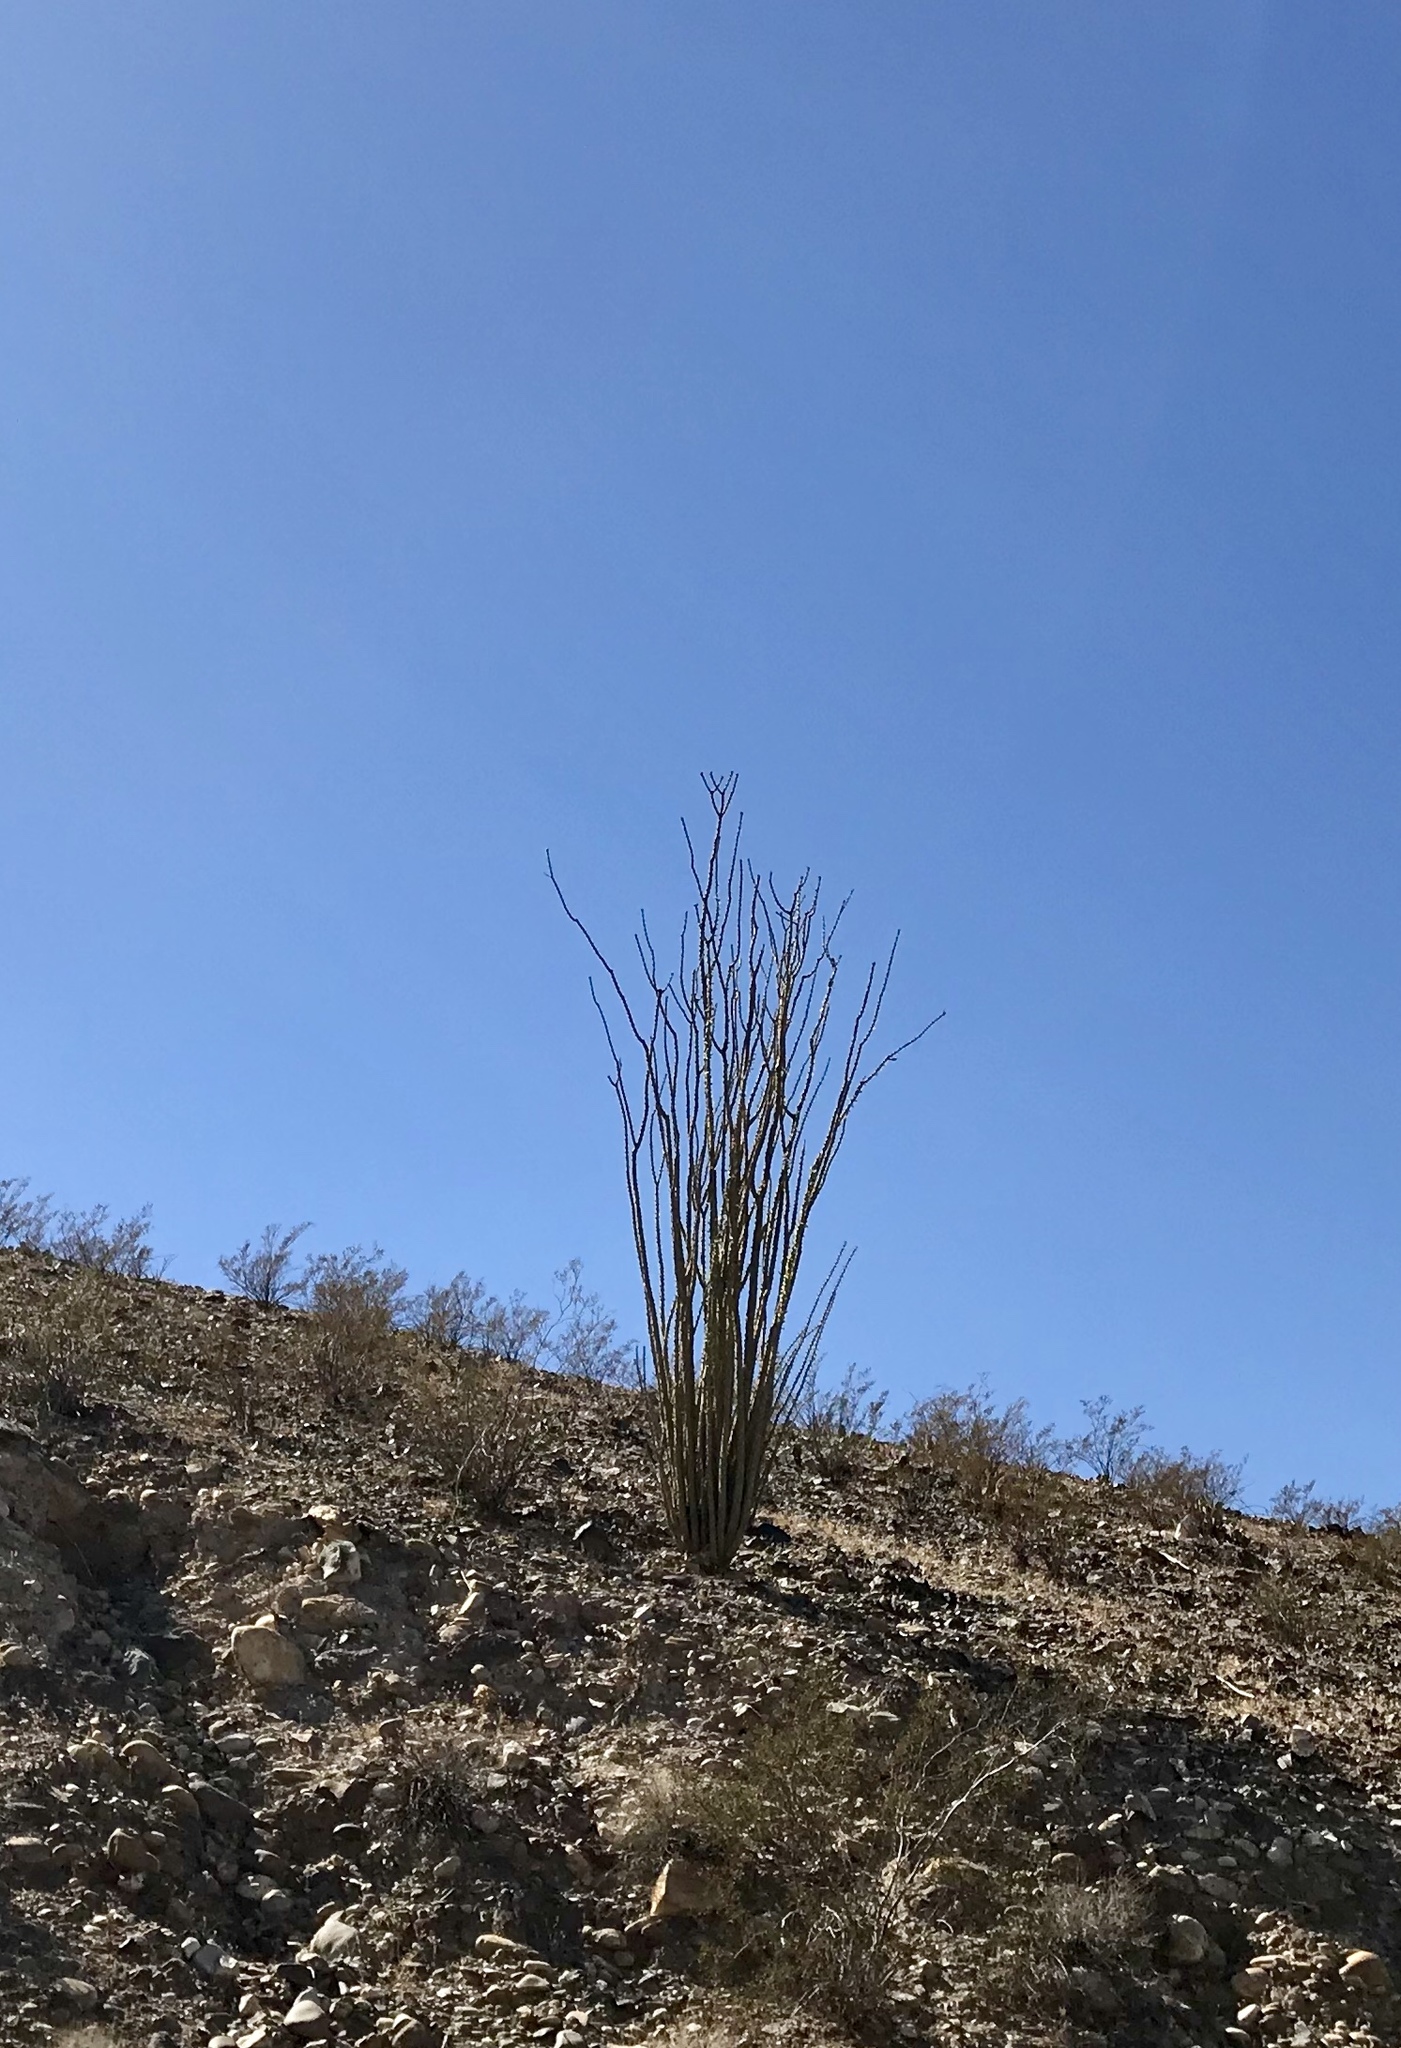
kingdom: Plantae
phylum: Tracheophyta
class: Magnoliopsida
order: Ericales
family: Fouquieriaceae
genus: Fouquieria
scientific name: Fouquieria splendens
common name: Vine-cactus
